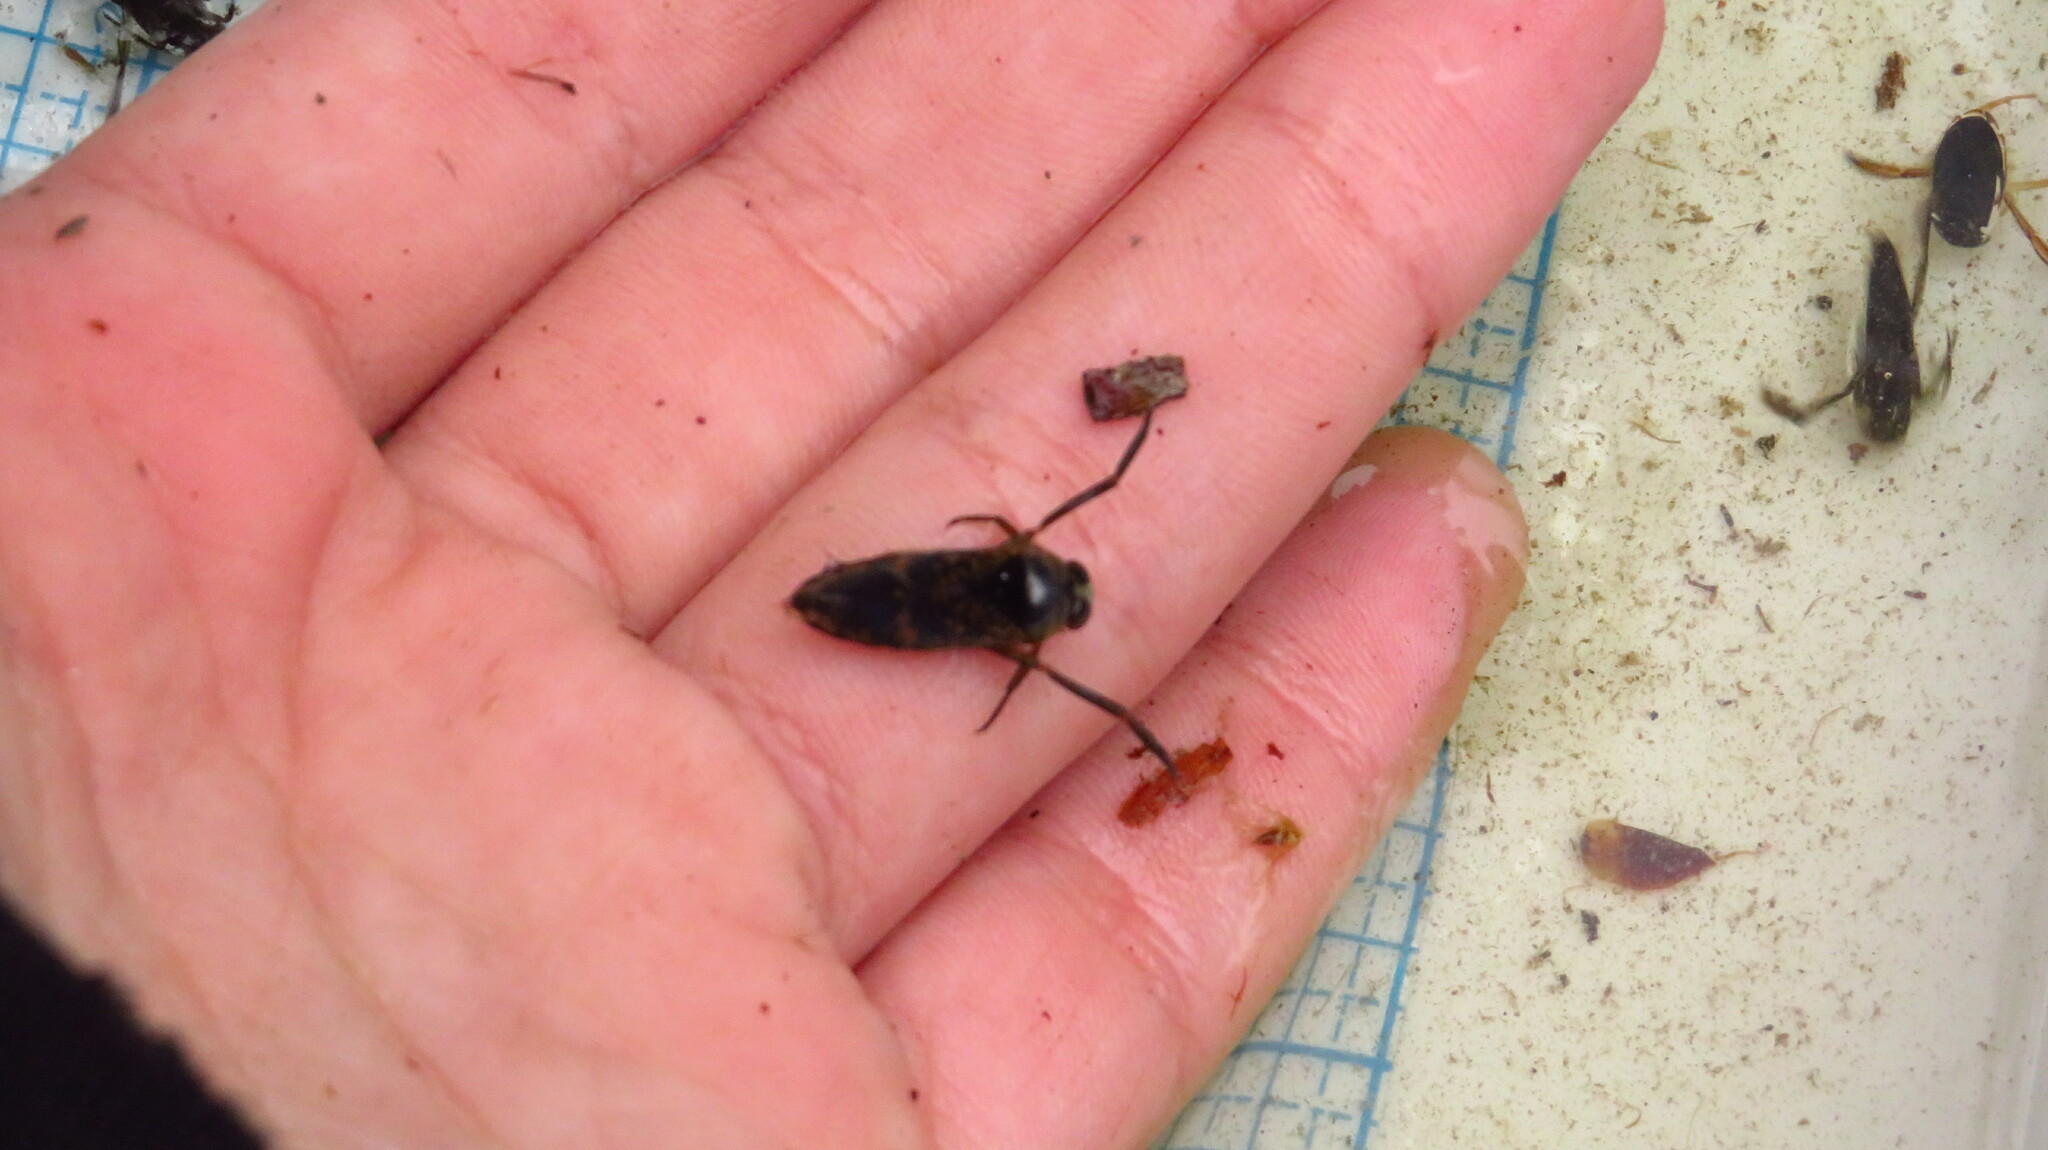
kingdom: Animalia
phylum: Arthropoda
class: Insecta
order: Hemiptera
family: Notonectidae
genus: Notonecta
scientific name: Notonecta irrorata
